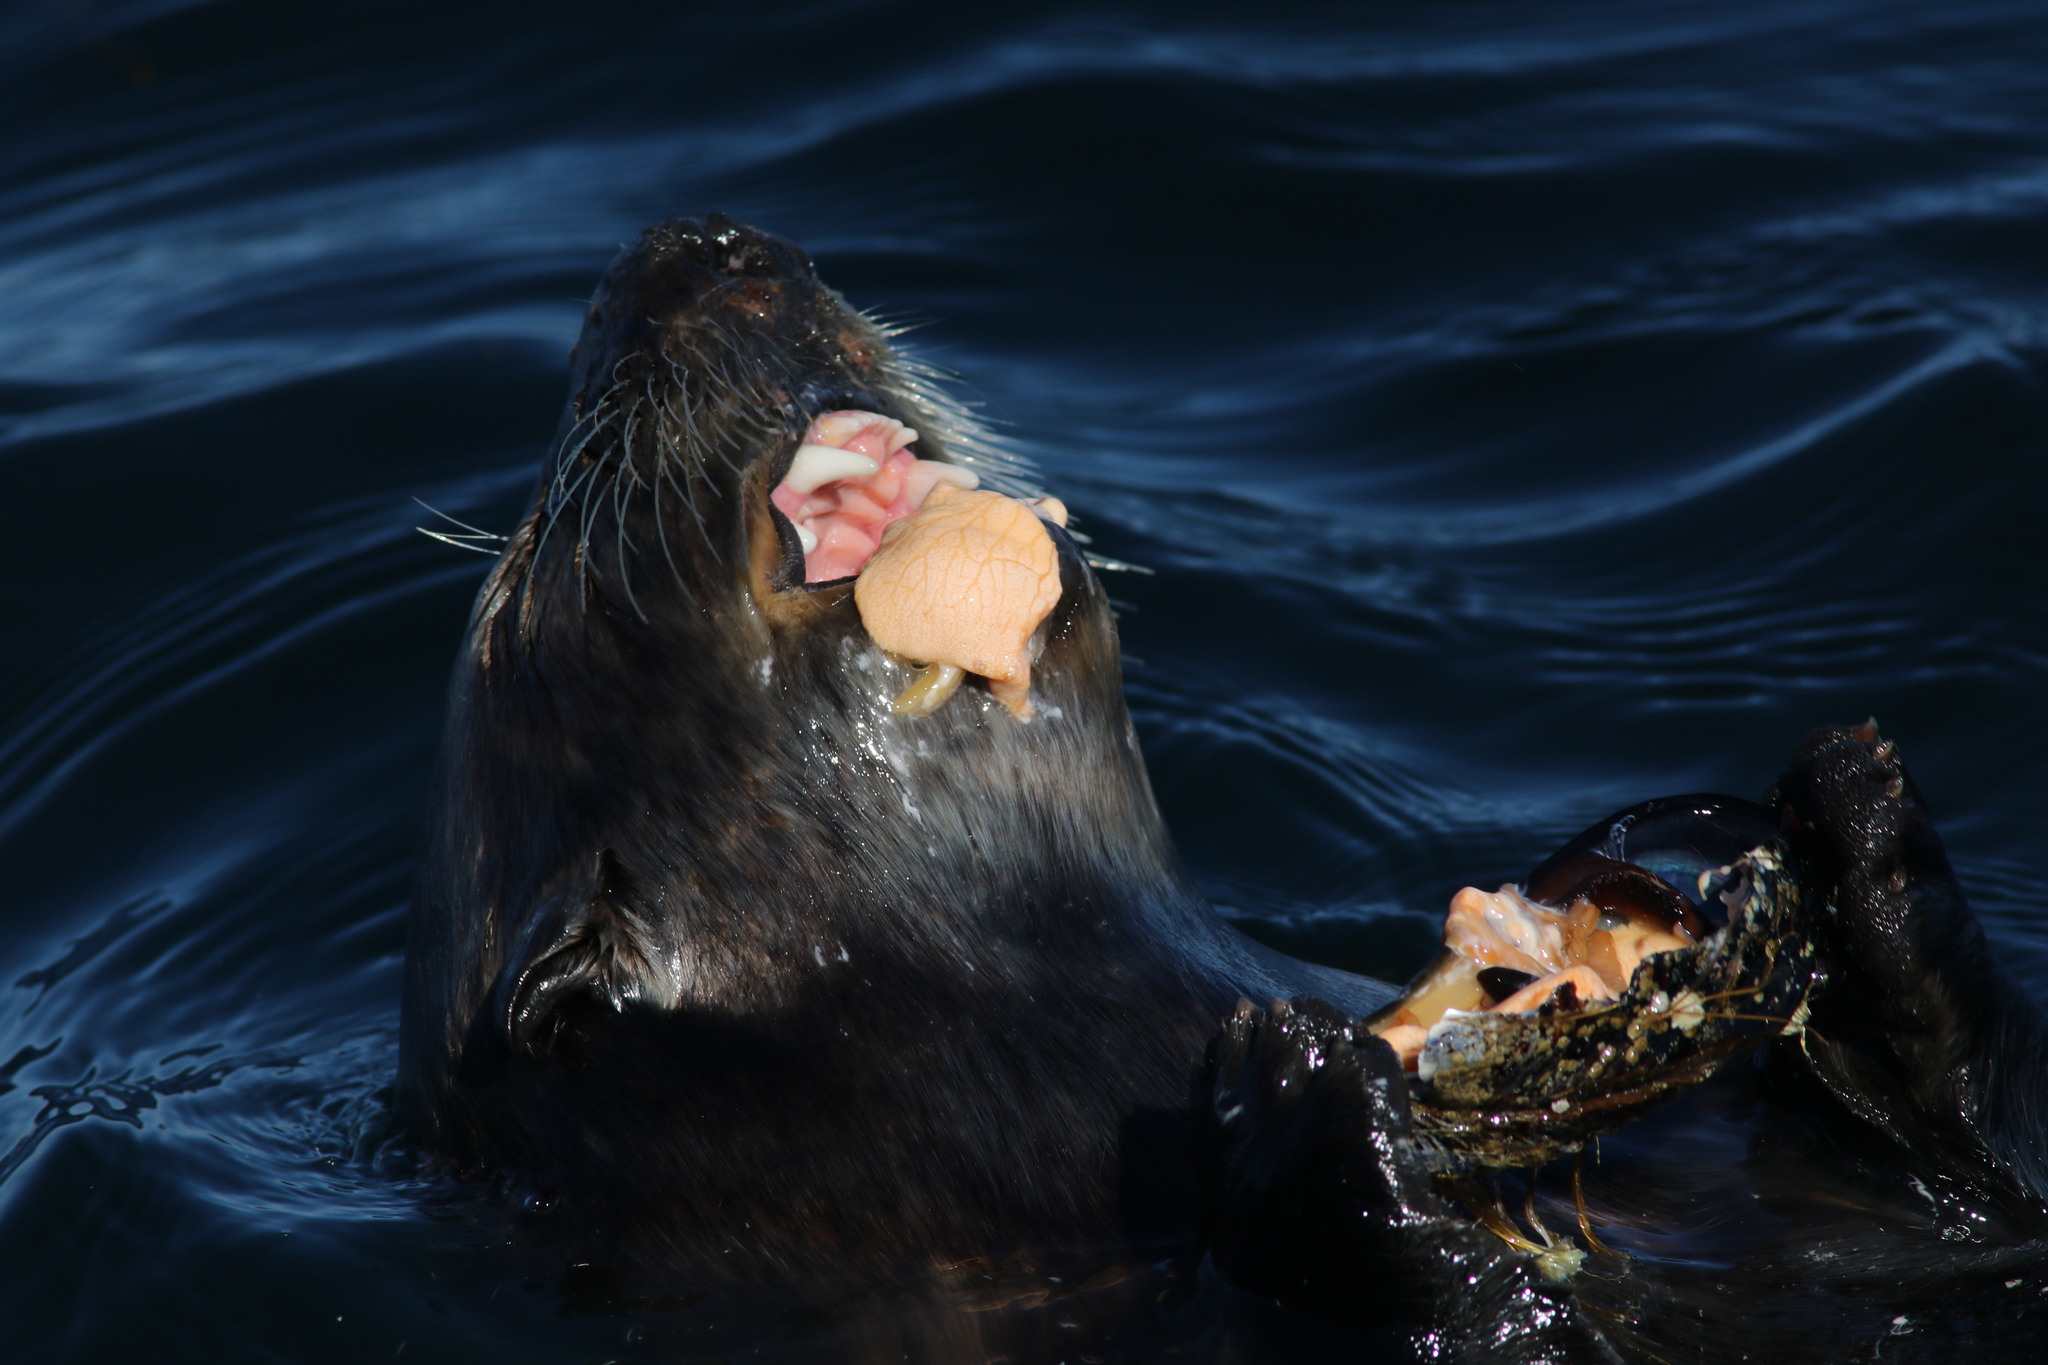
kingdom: Animalia
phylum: Chordata
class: Mammalia
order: Carnivora
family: Mustelidae
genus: Enhydra
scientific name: Enhydra lutris
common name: Sea otter
